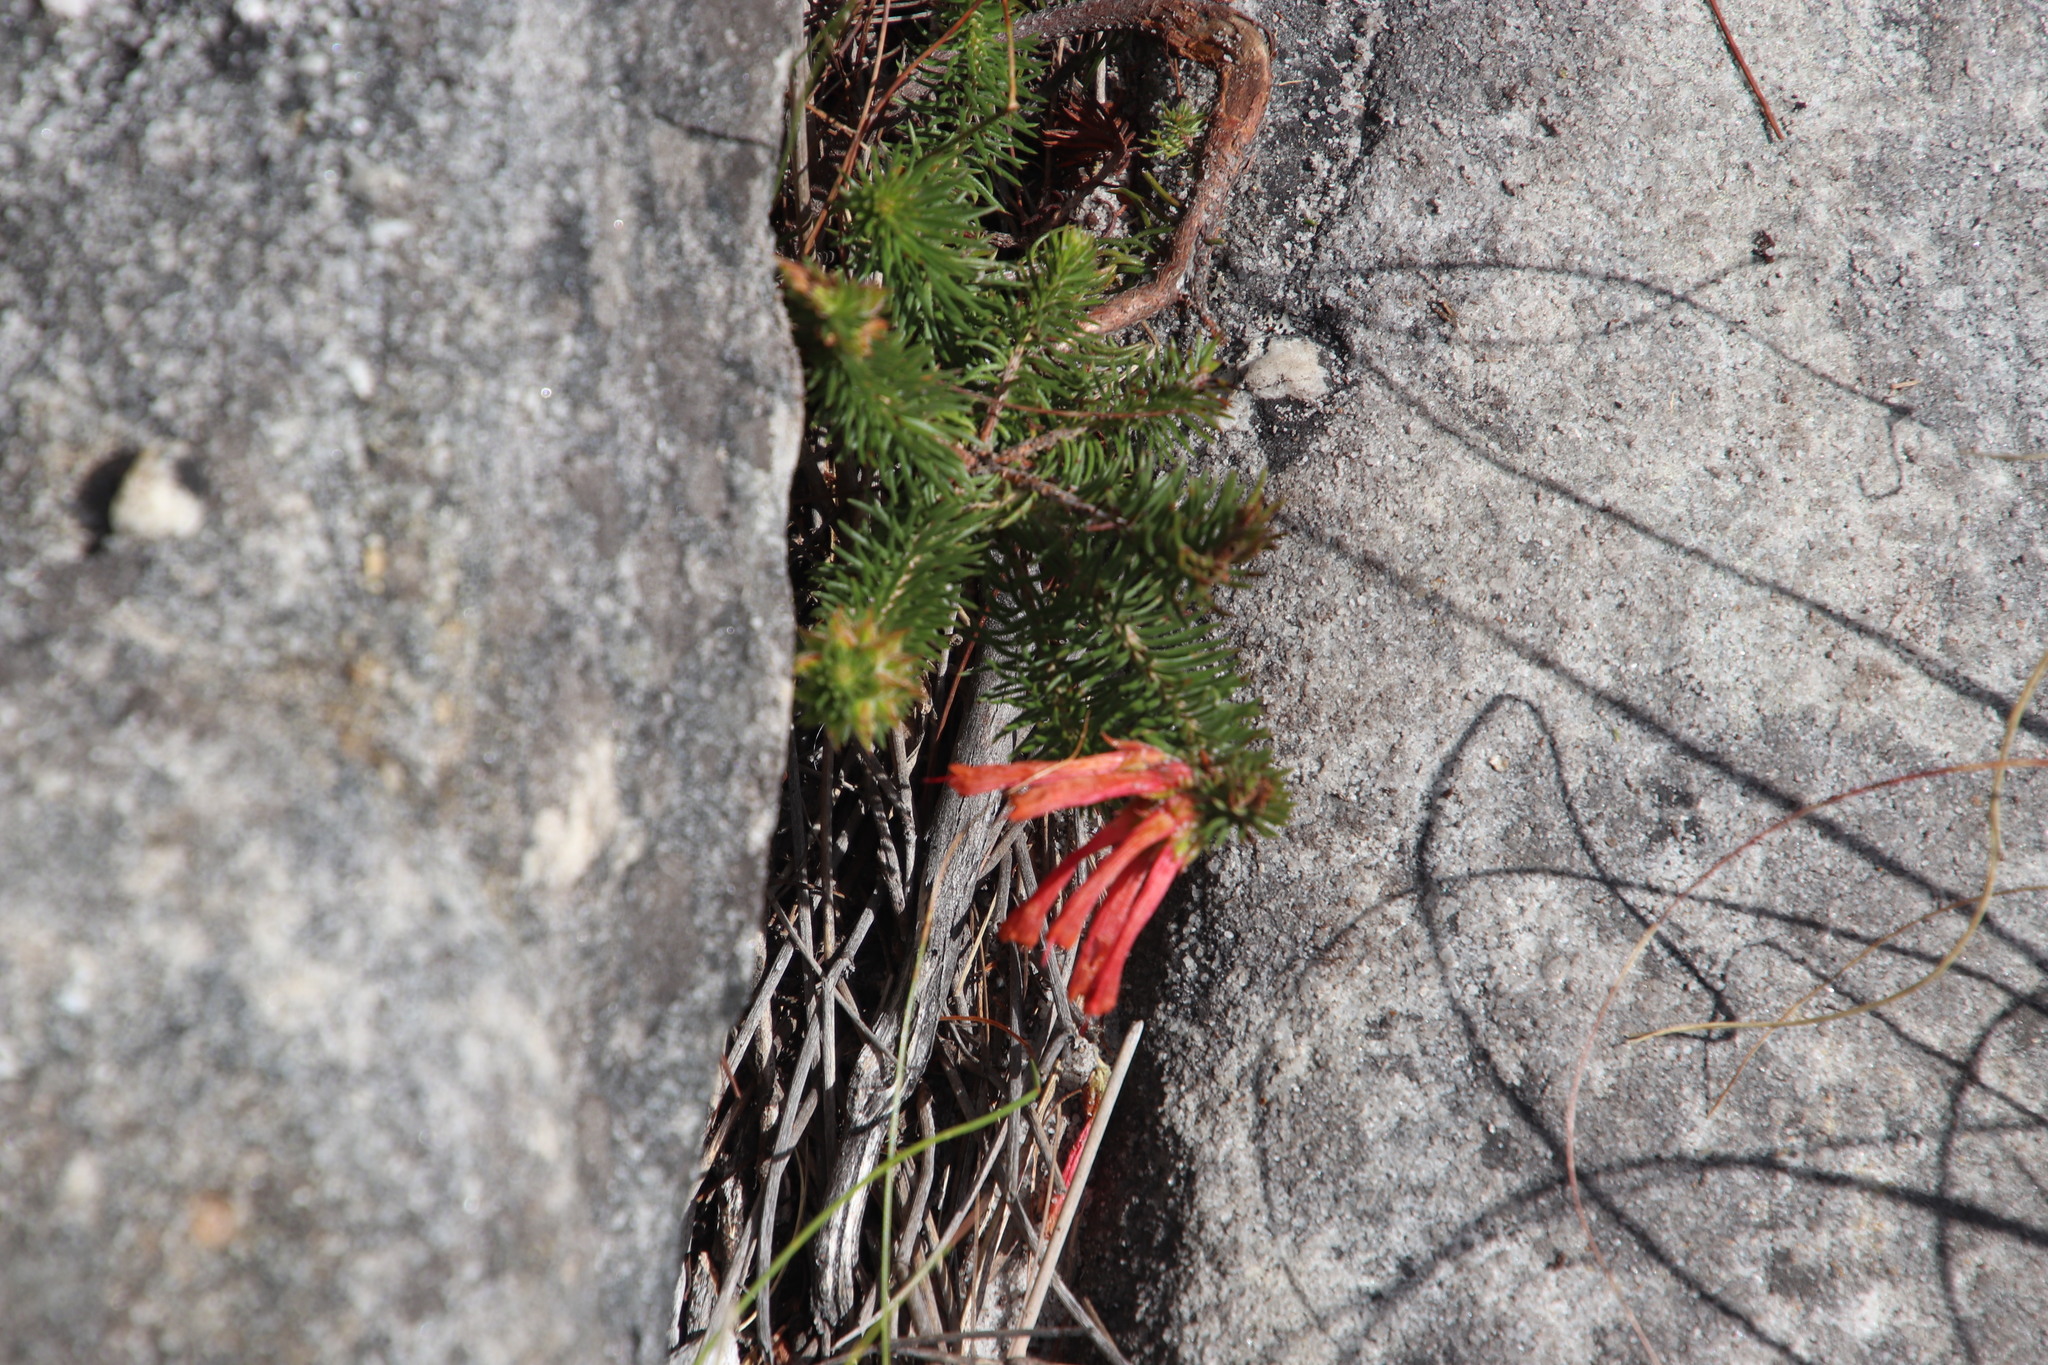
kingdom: Plantae
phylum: Tracheophyta
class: Magnoliopsida
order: Ericales
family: Ericaceae
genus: Erica
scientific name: Erica abietina
